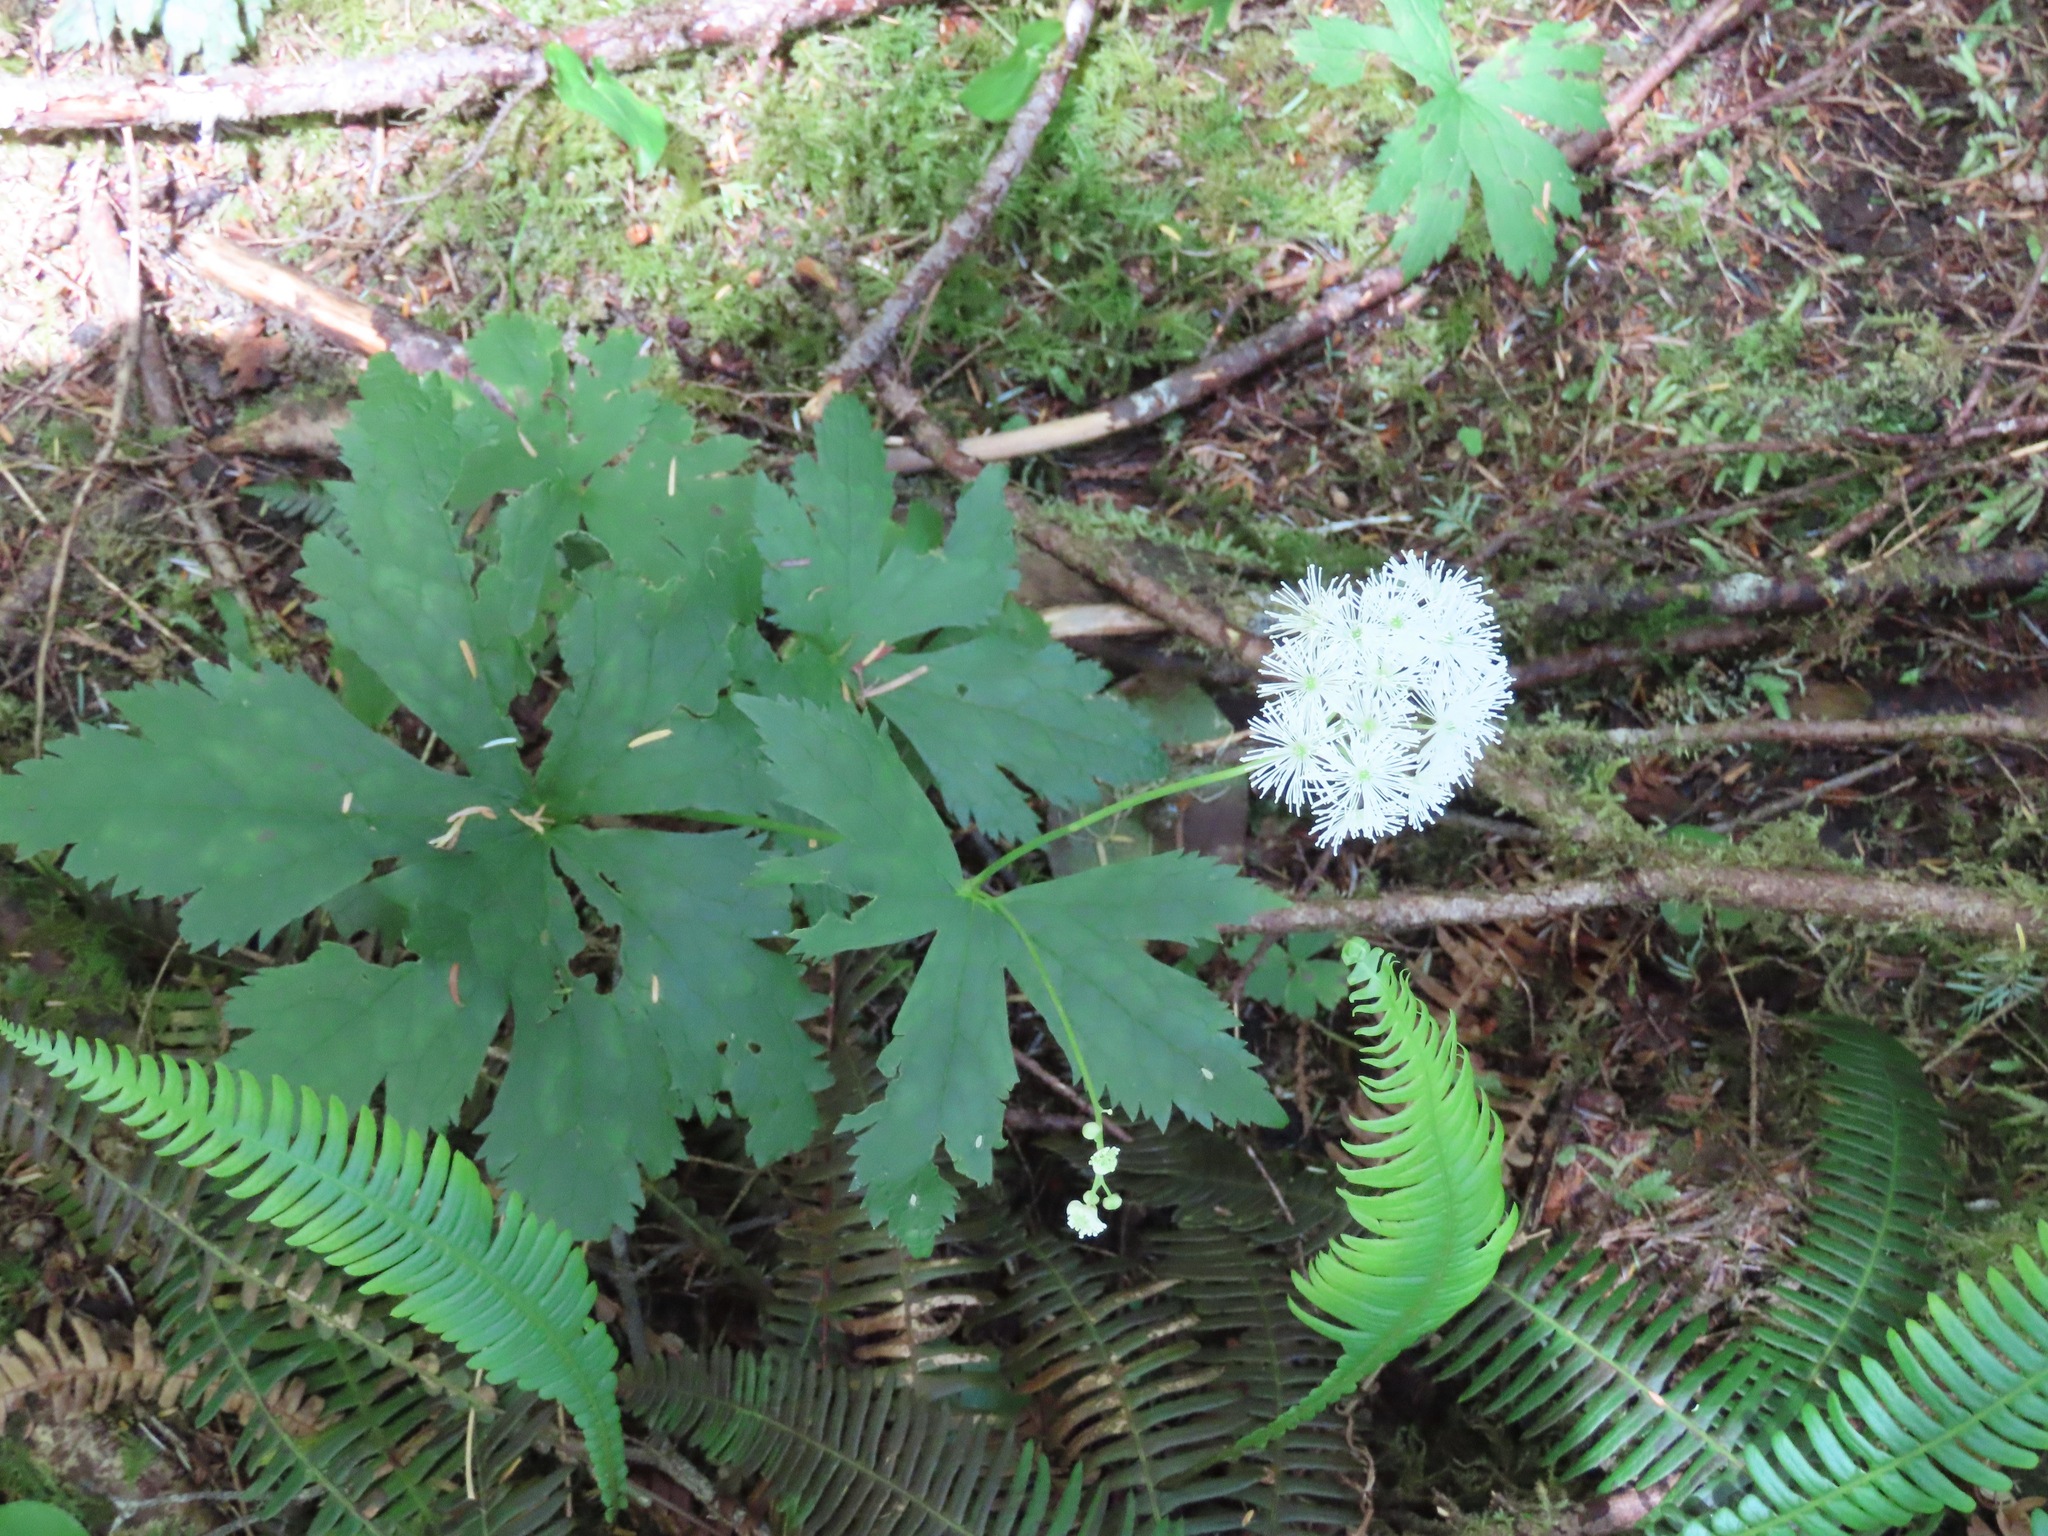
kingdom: Plantae
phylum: Tracheophyta
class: Magnoliopsida
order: Ranunculales
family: Ranunculaceae
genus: Trautvetteria
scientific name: Trautvetteria carolinensis
